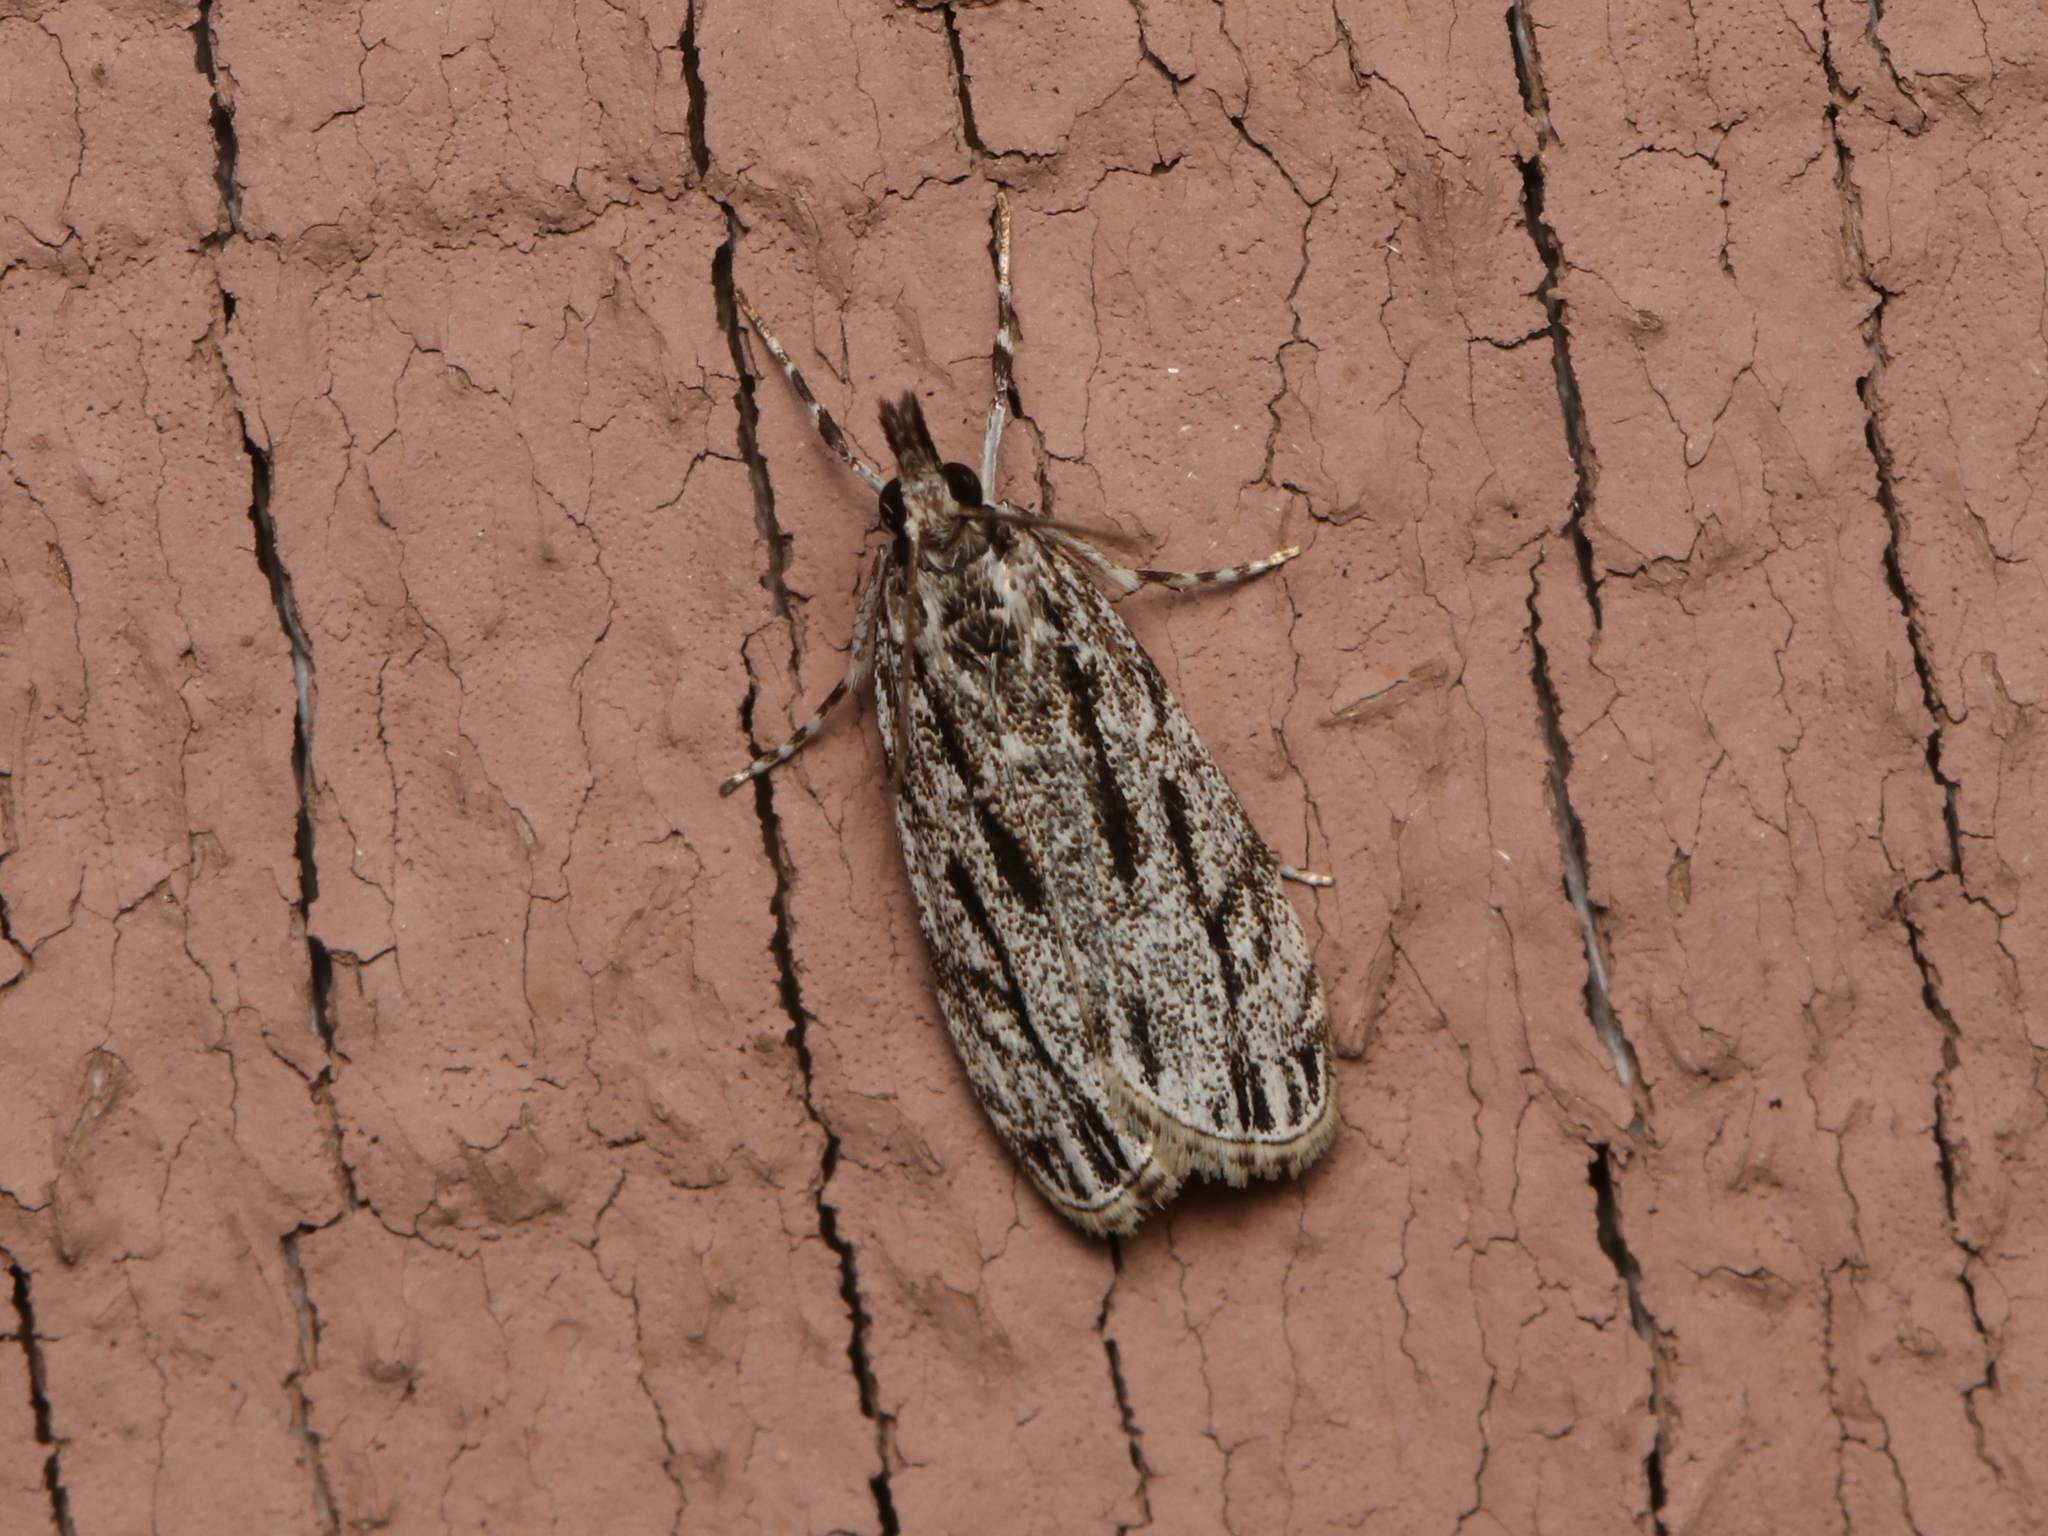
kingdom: Animalia
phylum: Arthropoda
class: Insecta
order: Lepidoptera
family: Crambidae
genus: Eudonia
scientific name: Eudonia strigalis
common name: Striped eudonia moth
